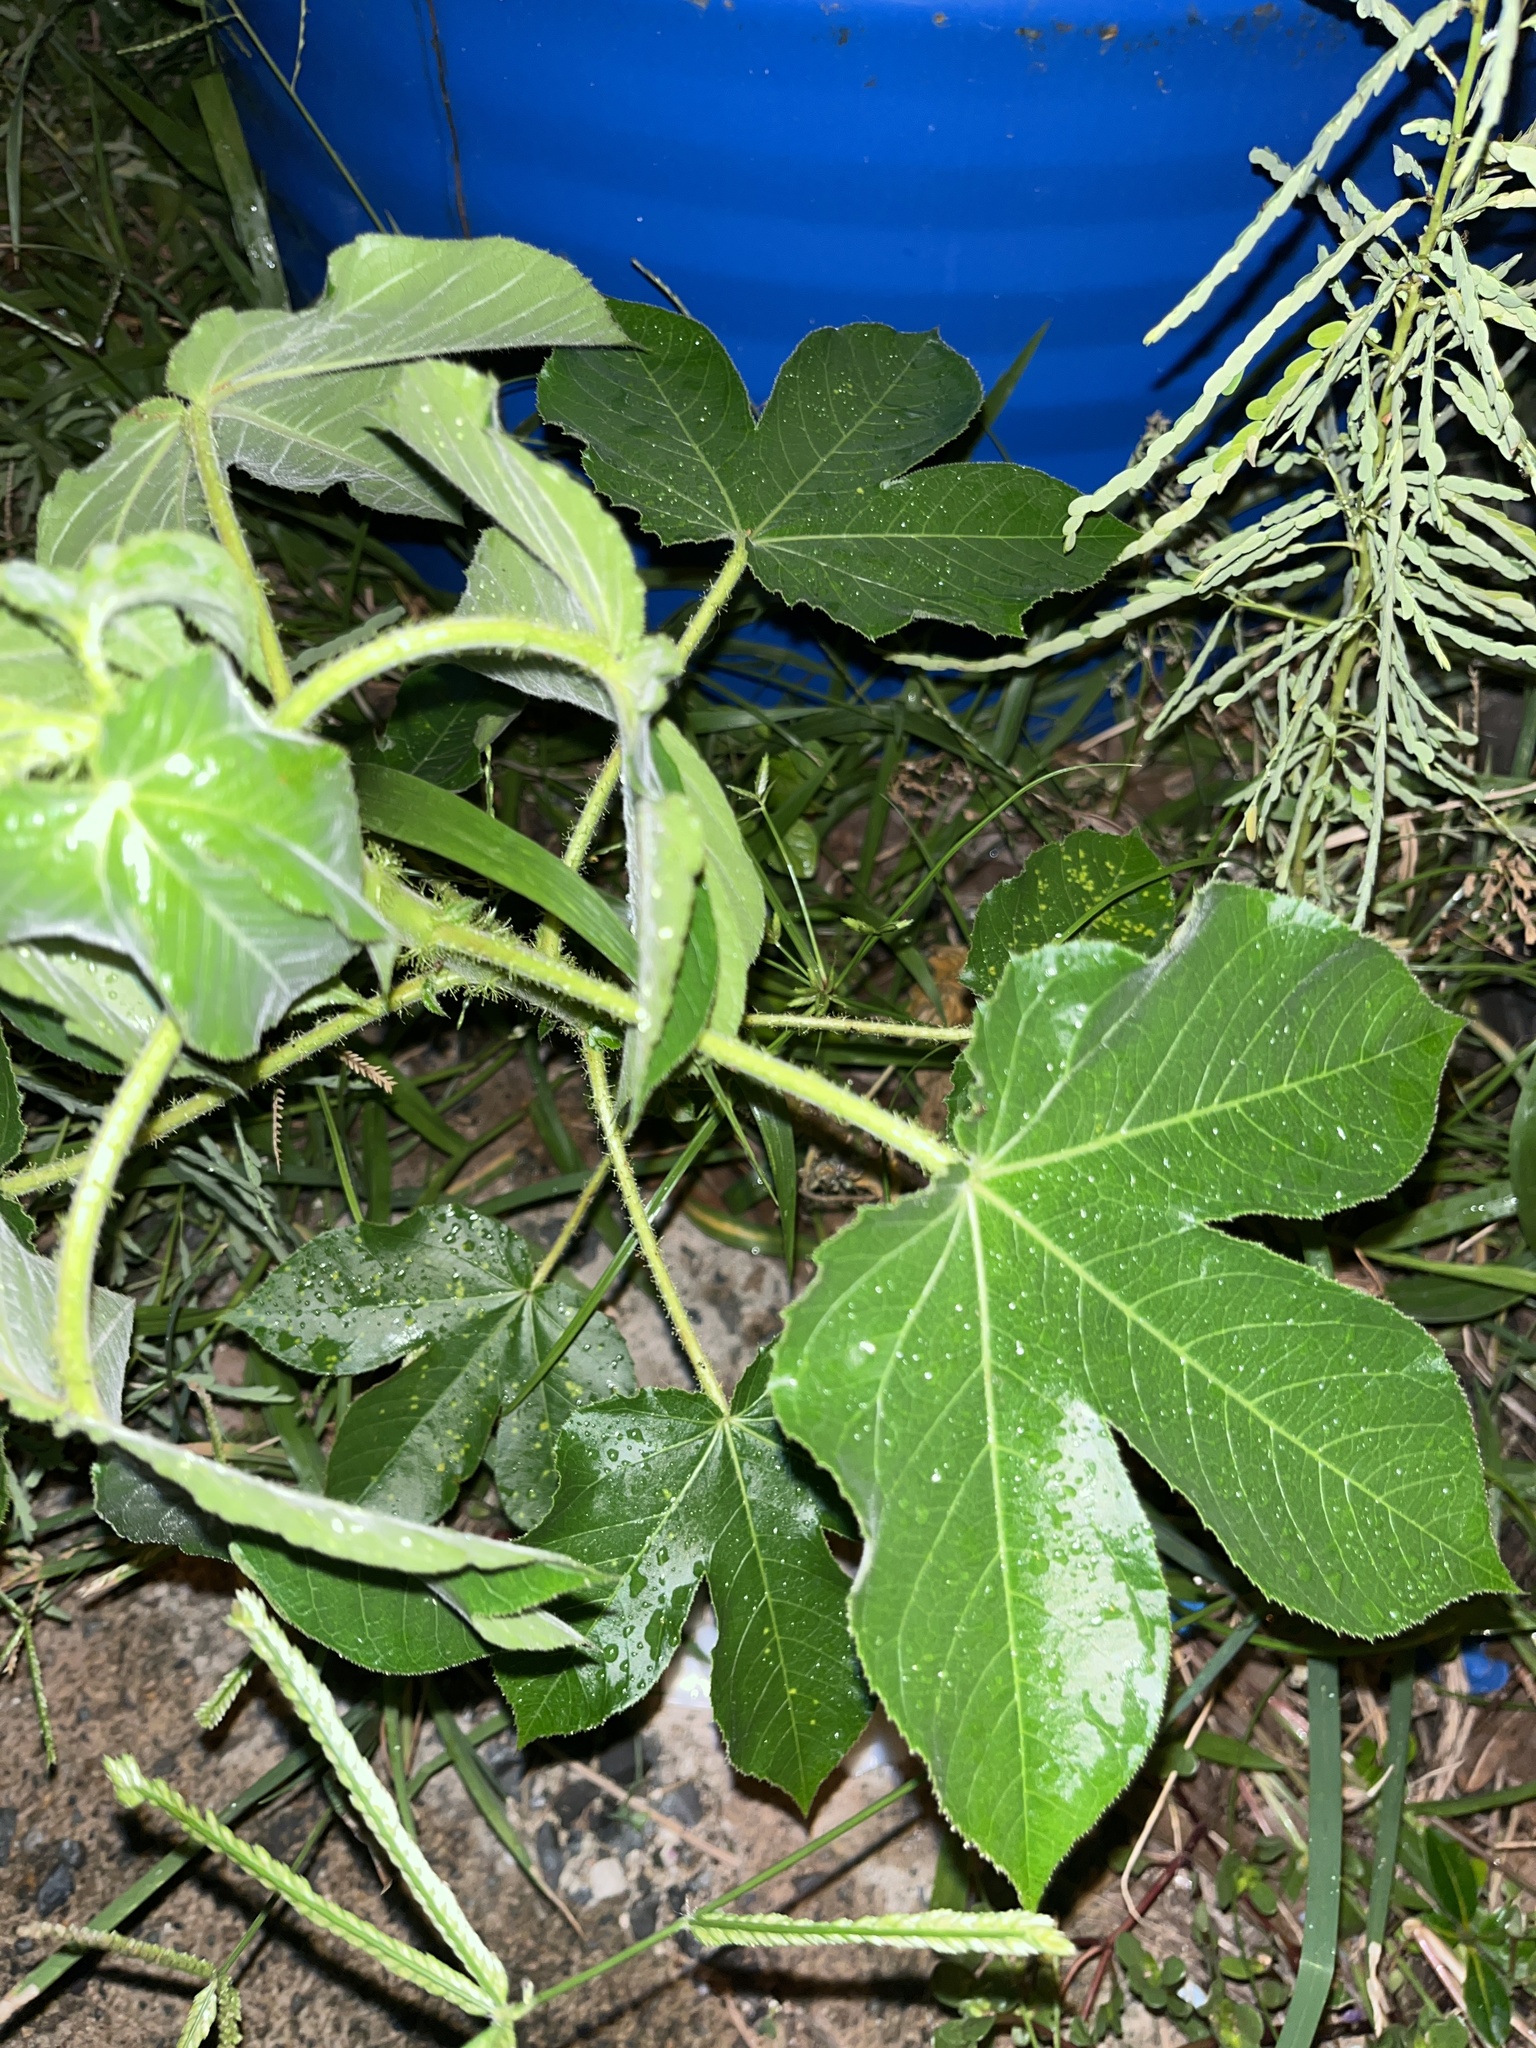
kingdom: Plantae
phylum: Tracheophyta
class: Magnoliopsida
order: Malpighiales
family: Euphorbiaceae
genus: Jatropha
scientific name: Jatropha gossypiifolia
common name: Bellyache bush
